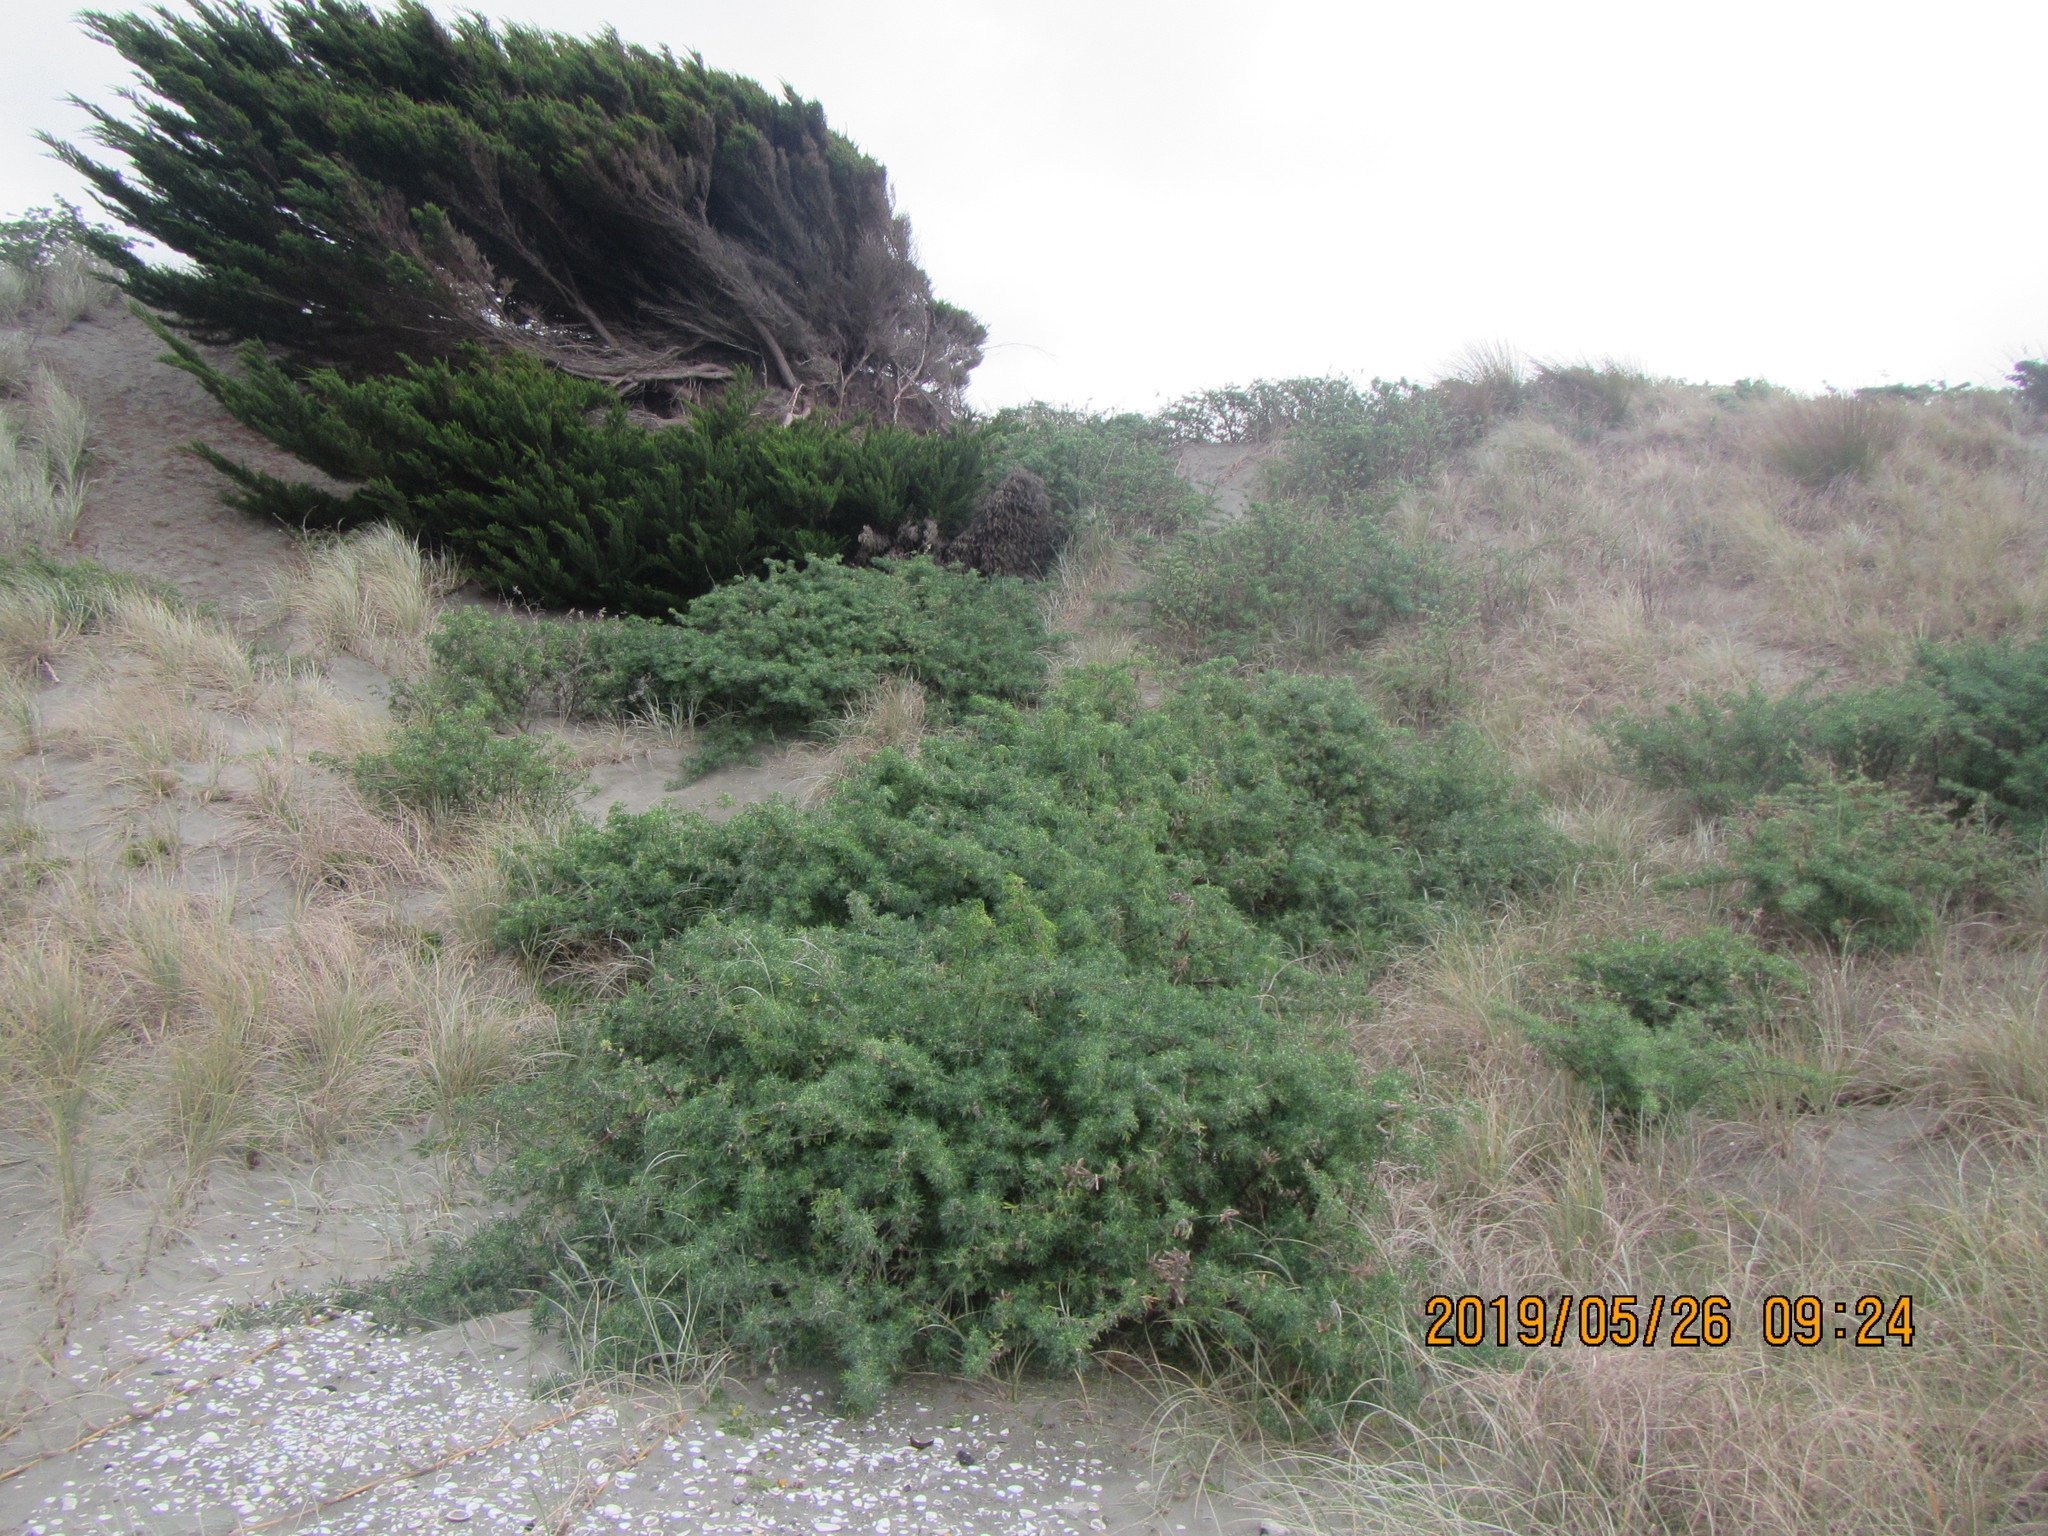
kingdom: Plantae
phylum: Tracheophyta
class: Magnoliopsida
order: Fabales
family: Fabaceae
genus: Lupinus
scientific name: Lupinus arboreus
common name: Yellow bush lupine
